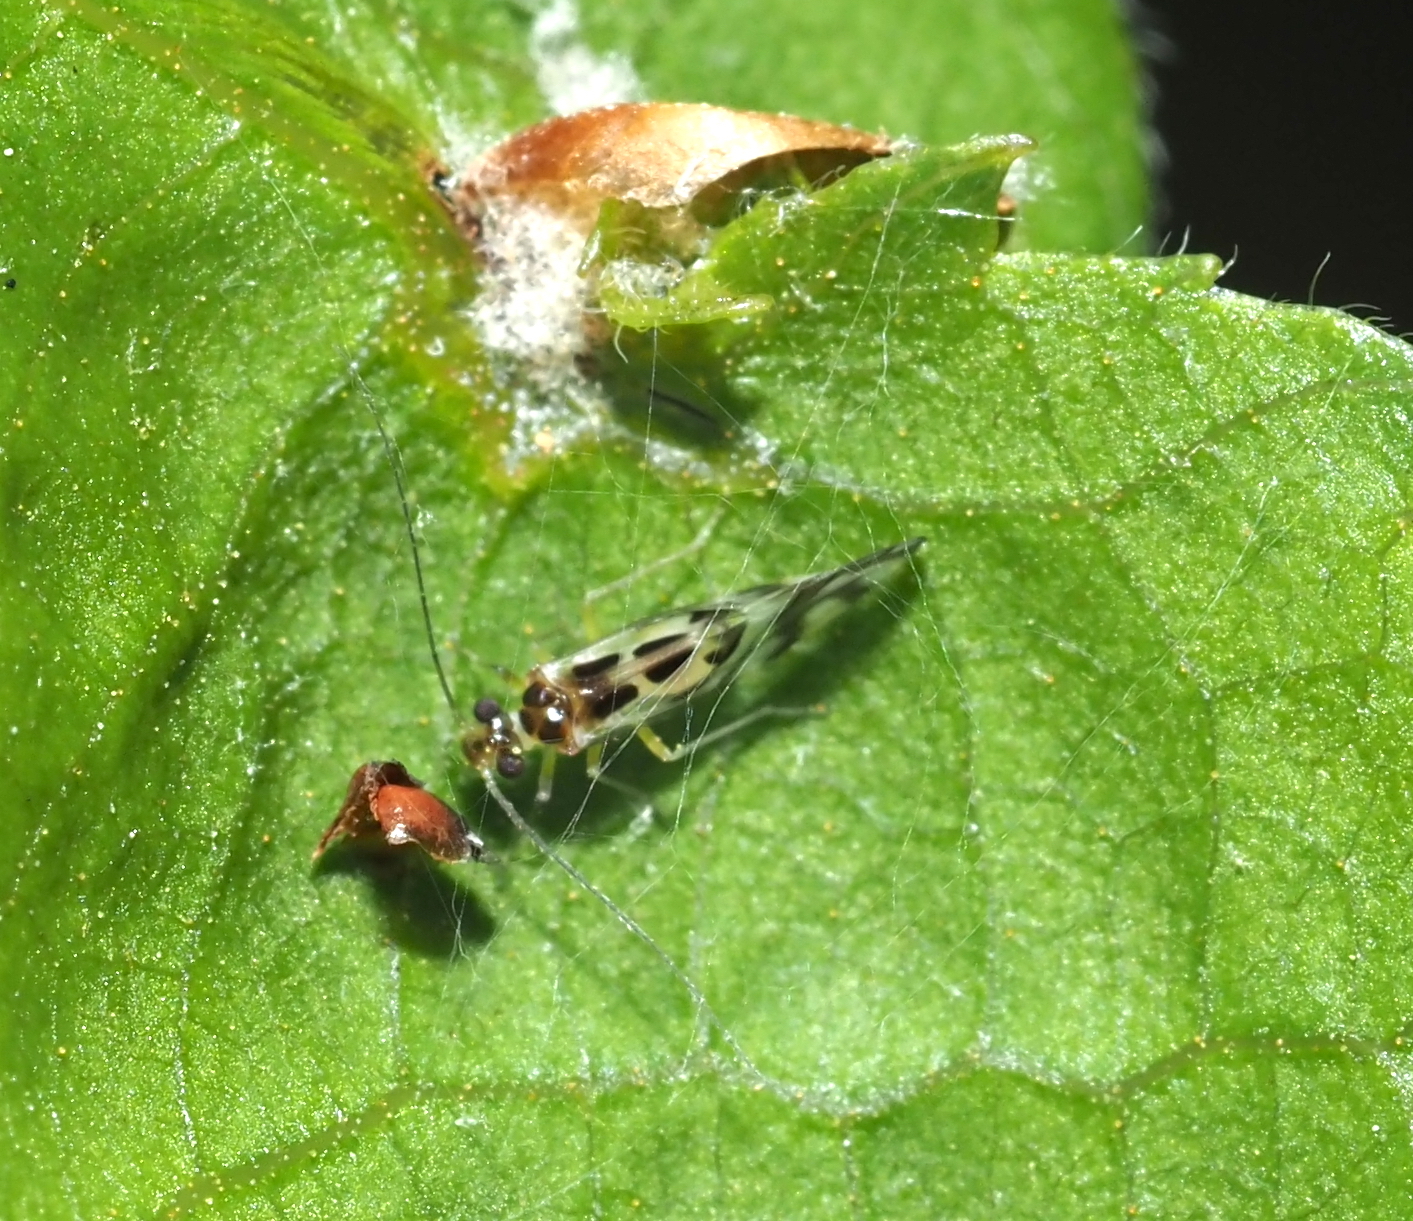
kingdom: Animalia
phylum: Arthropoda
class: Insecta
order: Psocodea
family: Stenopsocidae
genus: Graphopsocus
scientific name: Graphopsocus cruciatus
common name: Lizard bark louse
